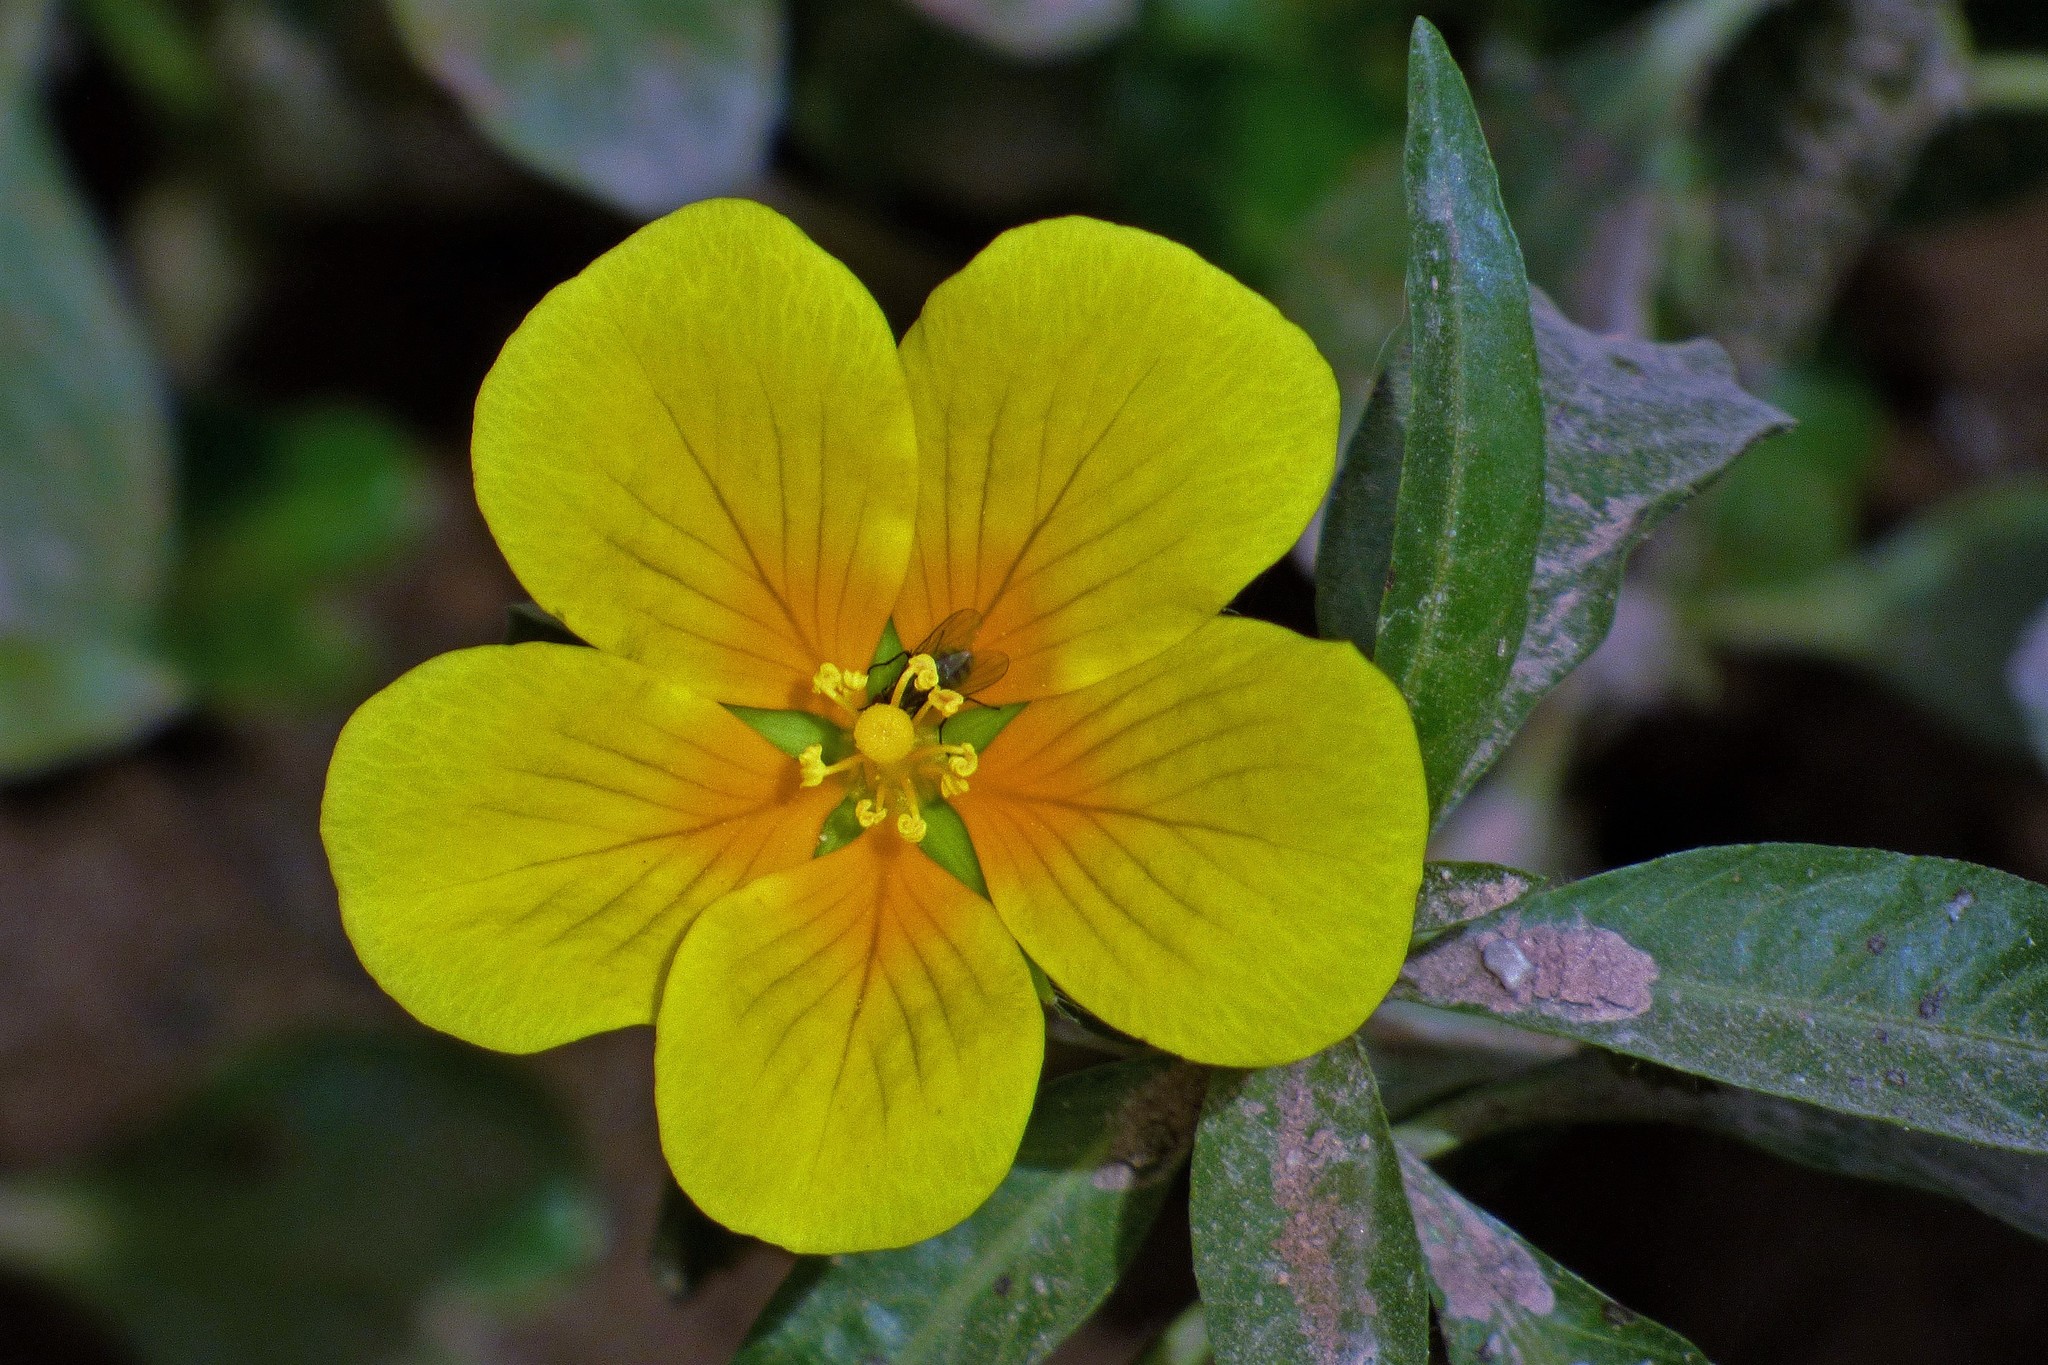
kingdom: Plantae
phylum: Tracheophyta
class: Magnoliopsida
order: Myrtales
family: Onagraceae
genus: Ludwigia
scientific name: Ludwigia peploides
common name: Floating primrose-willow
